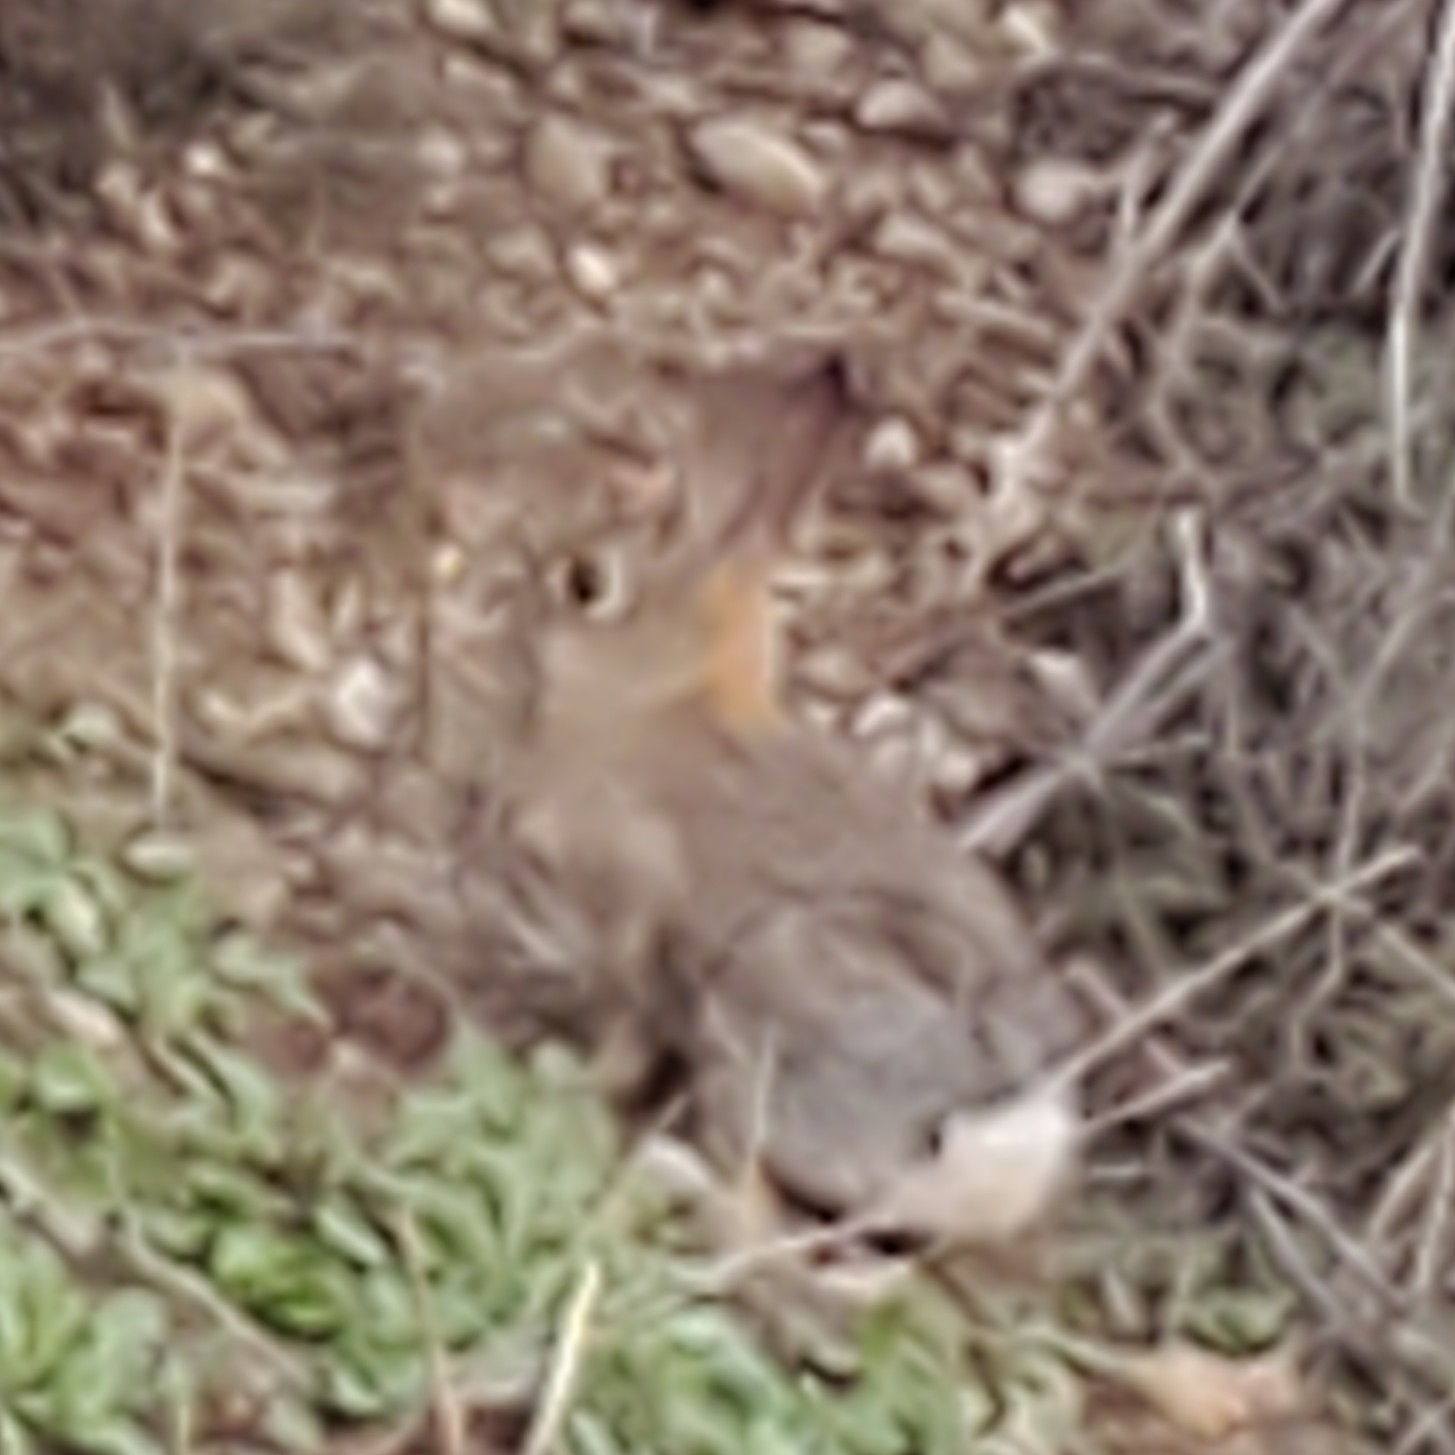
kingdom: Animalia
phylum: Chordata
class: Mammalia
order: Lagomorpha
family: Leporidae
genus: Sylvilagus
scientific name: Sylvilagus audubonii
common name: Desert cottontail
